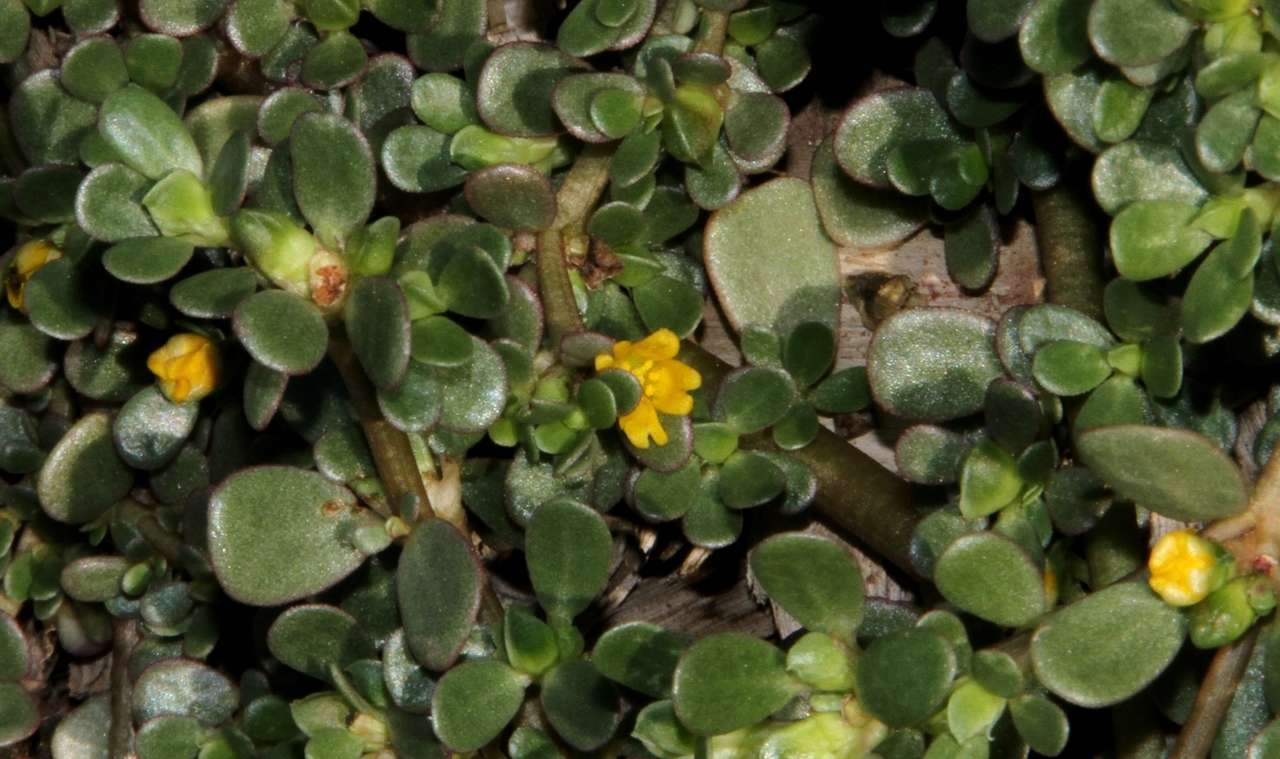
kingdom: Plantae
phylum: Tracheophyta
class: Magnoliopsida
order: Caryophyllales
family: Portulacaceae
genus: Portulaca
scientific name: Portulaca oleracea
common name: Common purslane
